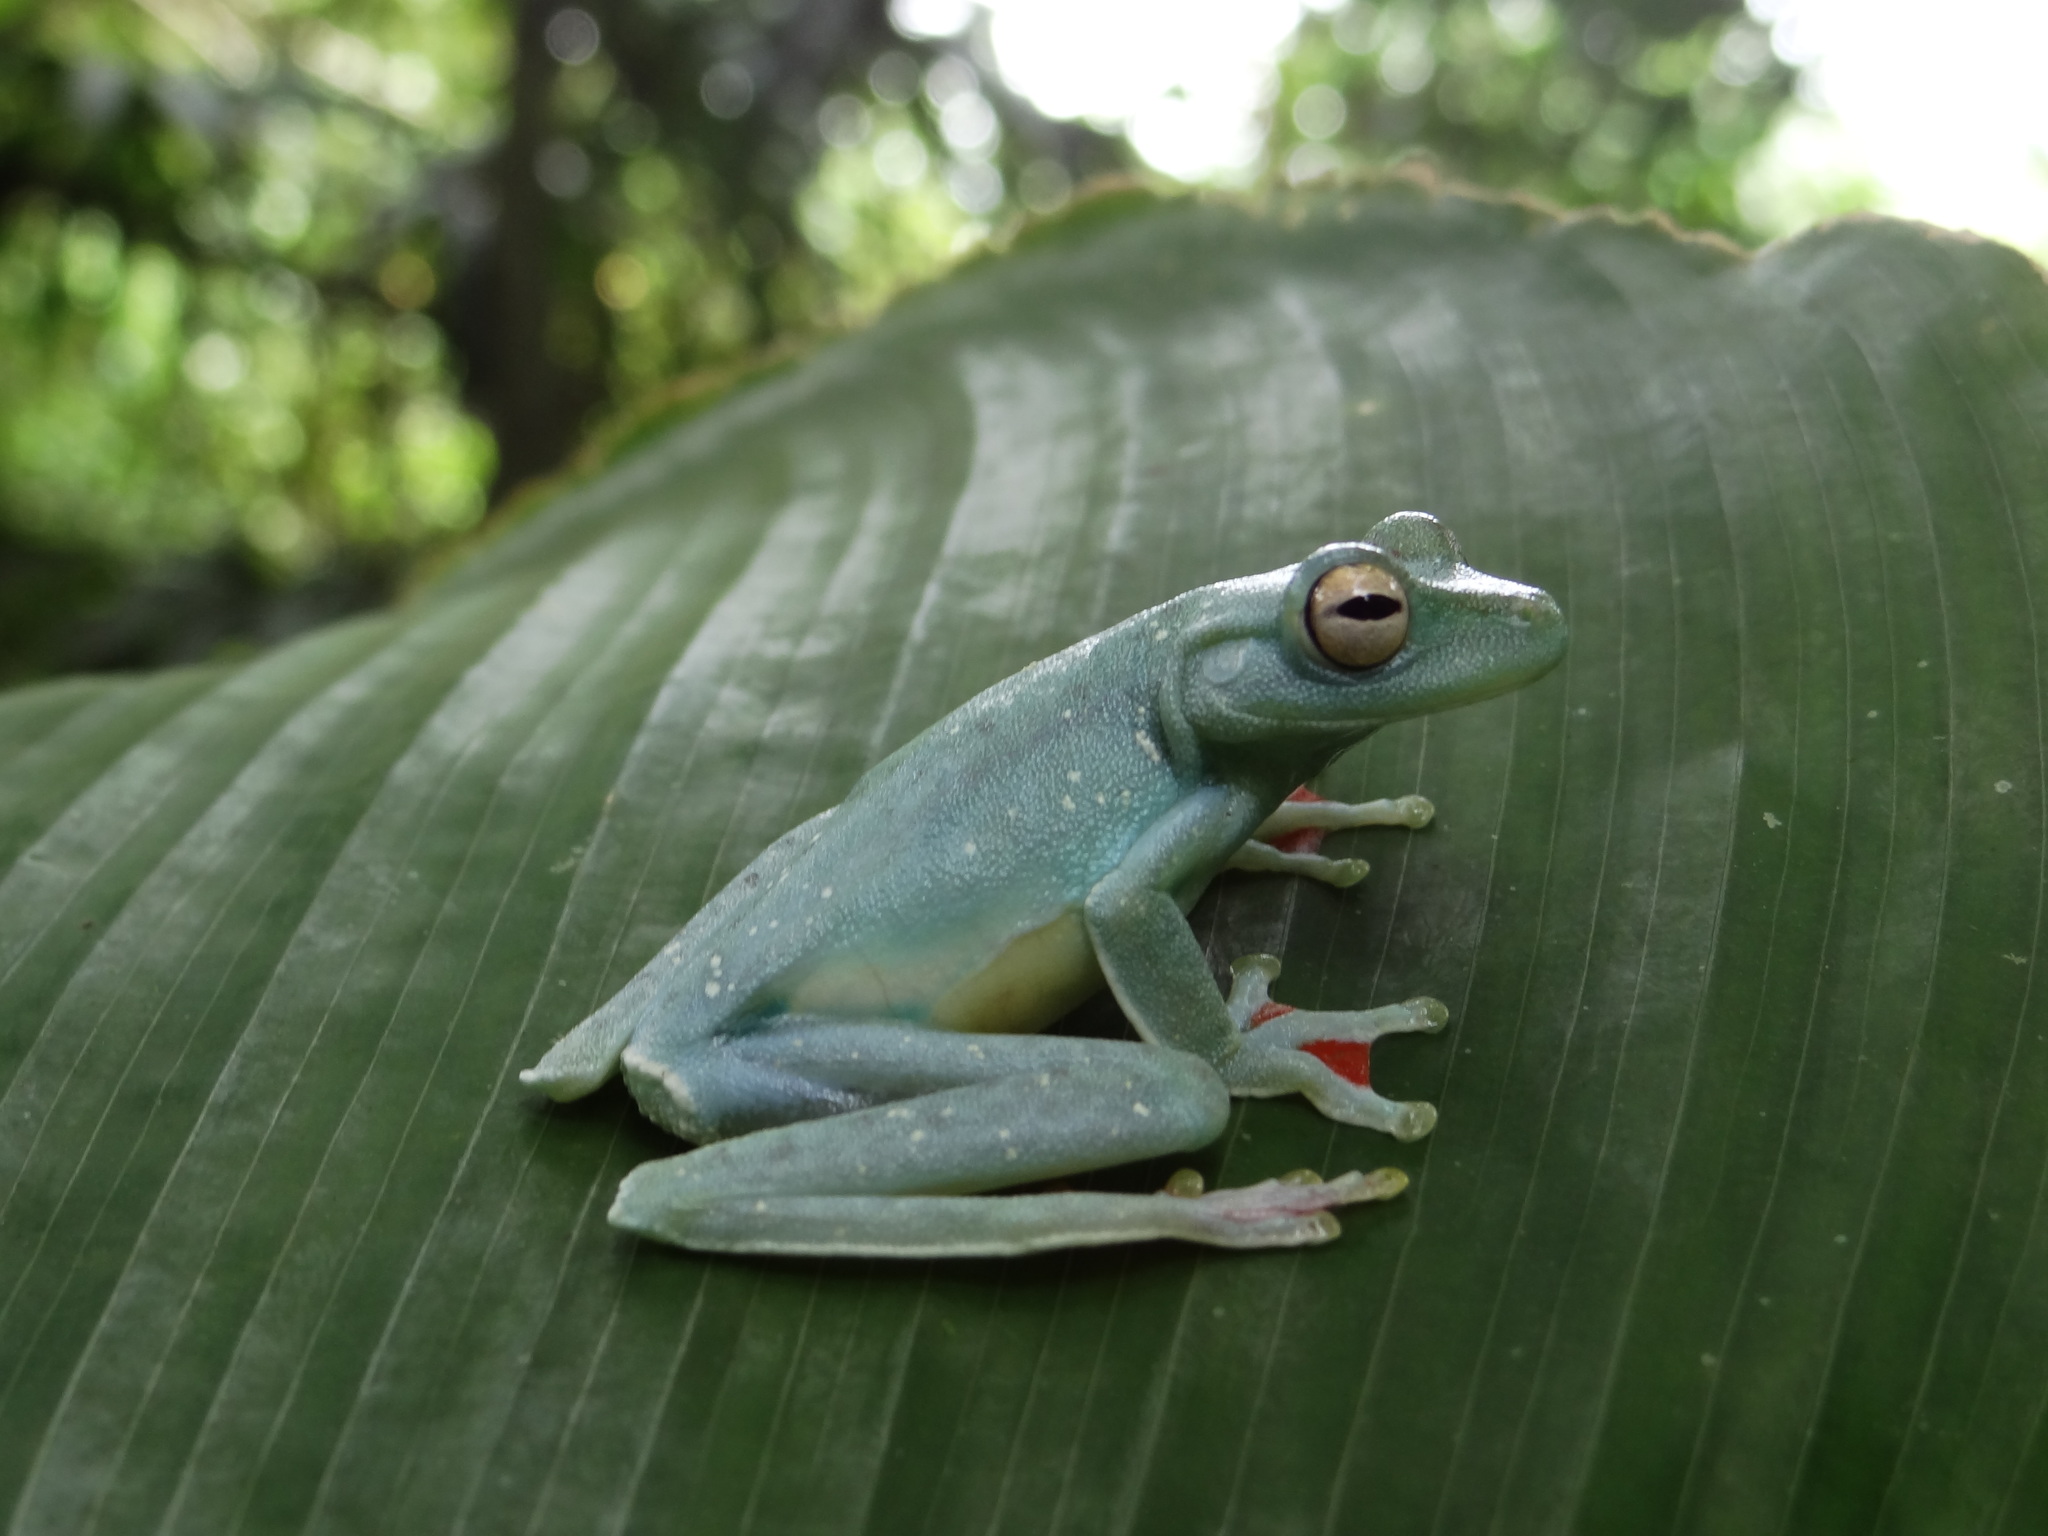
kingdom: Animalia
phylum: Chordata
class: Amphibia
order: Anura
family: Hylidae
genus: Boana
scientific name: Boana rufitela
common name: Canal zone treefrog
